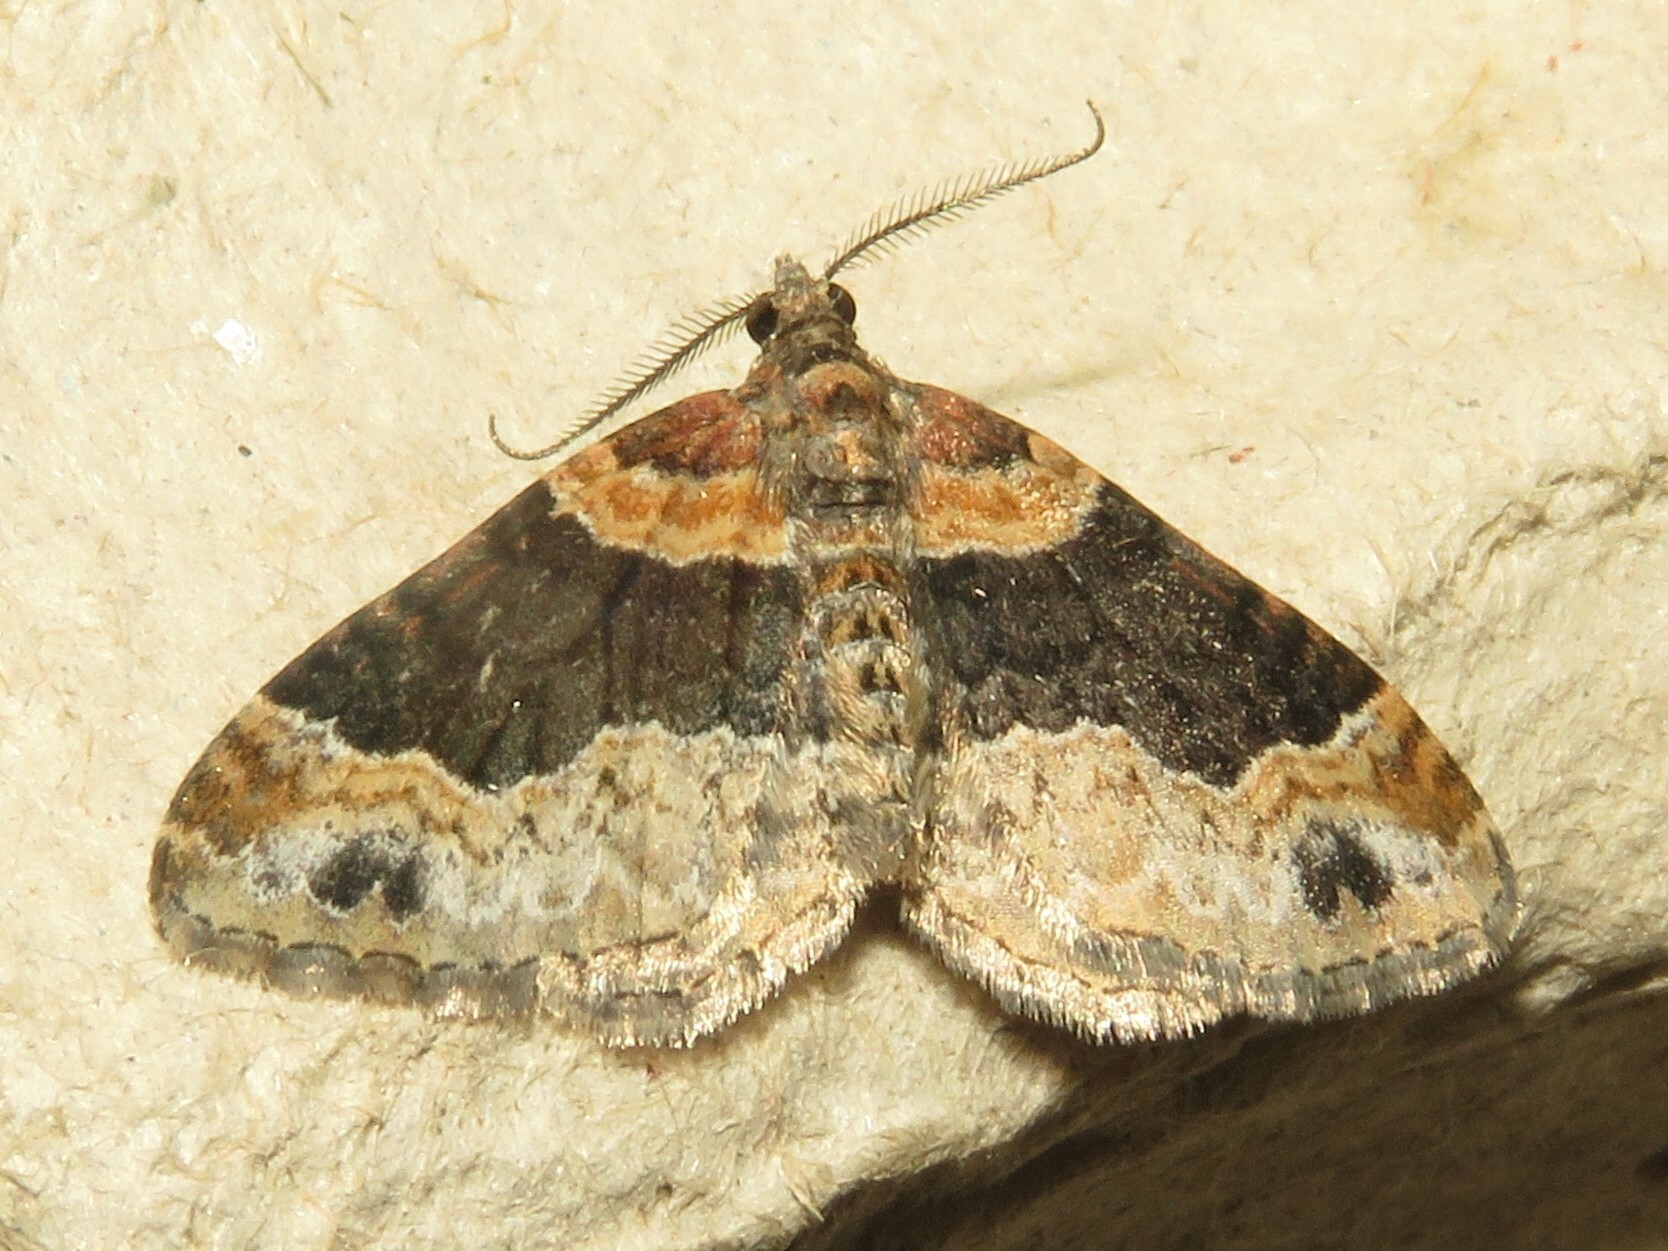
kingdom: Animalia
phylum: Arthropoda
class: Insecta
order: Lepidoptera
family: Geometridae
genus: Xanthorhoe
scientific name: Xanthorhoe ferrugata
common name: Dark-barred twin-spot carpet
